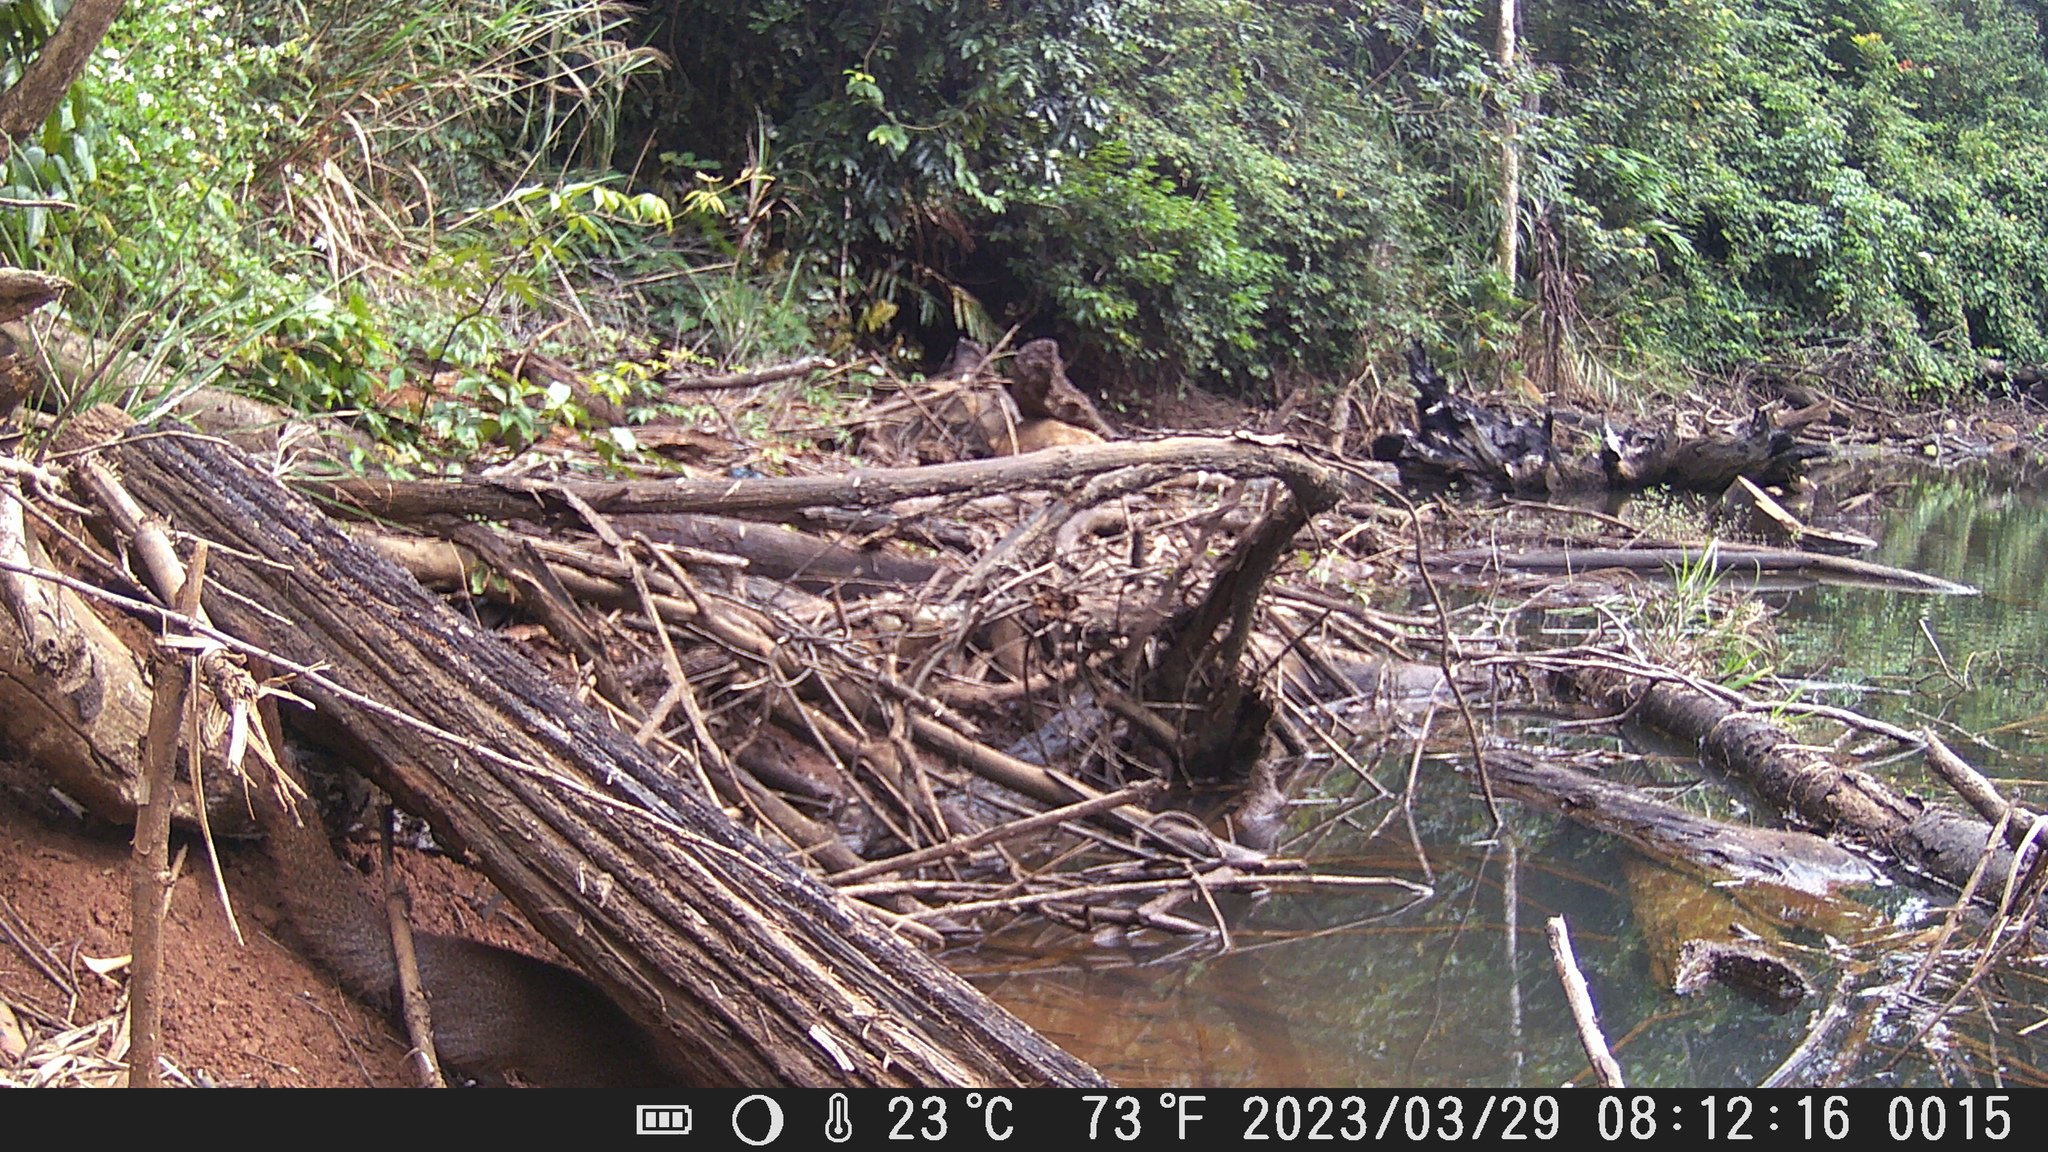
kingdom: Animalia
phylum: Chordata
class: Mammalia
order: Carnivora
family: Herpestidae
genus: Herpestes
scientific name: Herpestes javanicus
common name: Small asian mongoose
